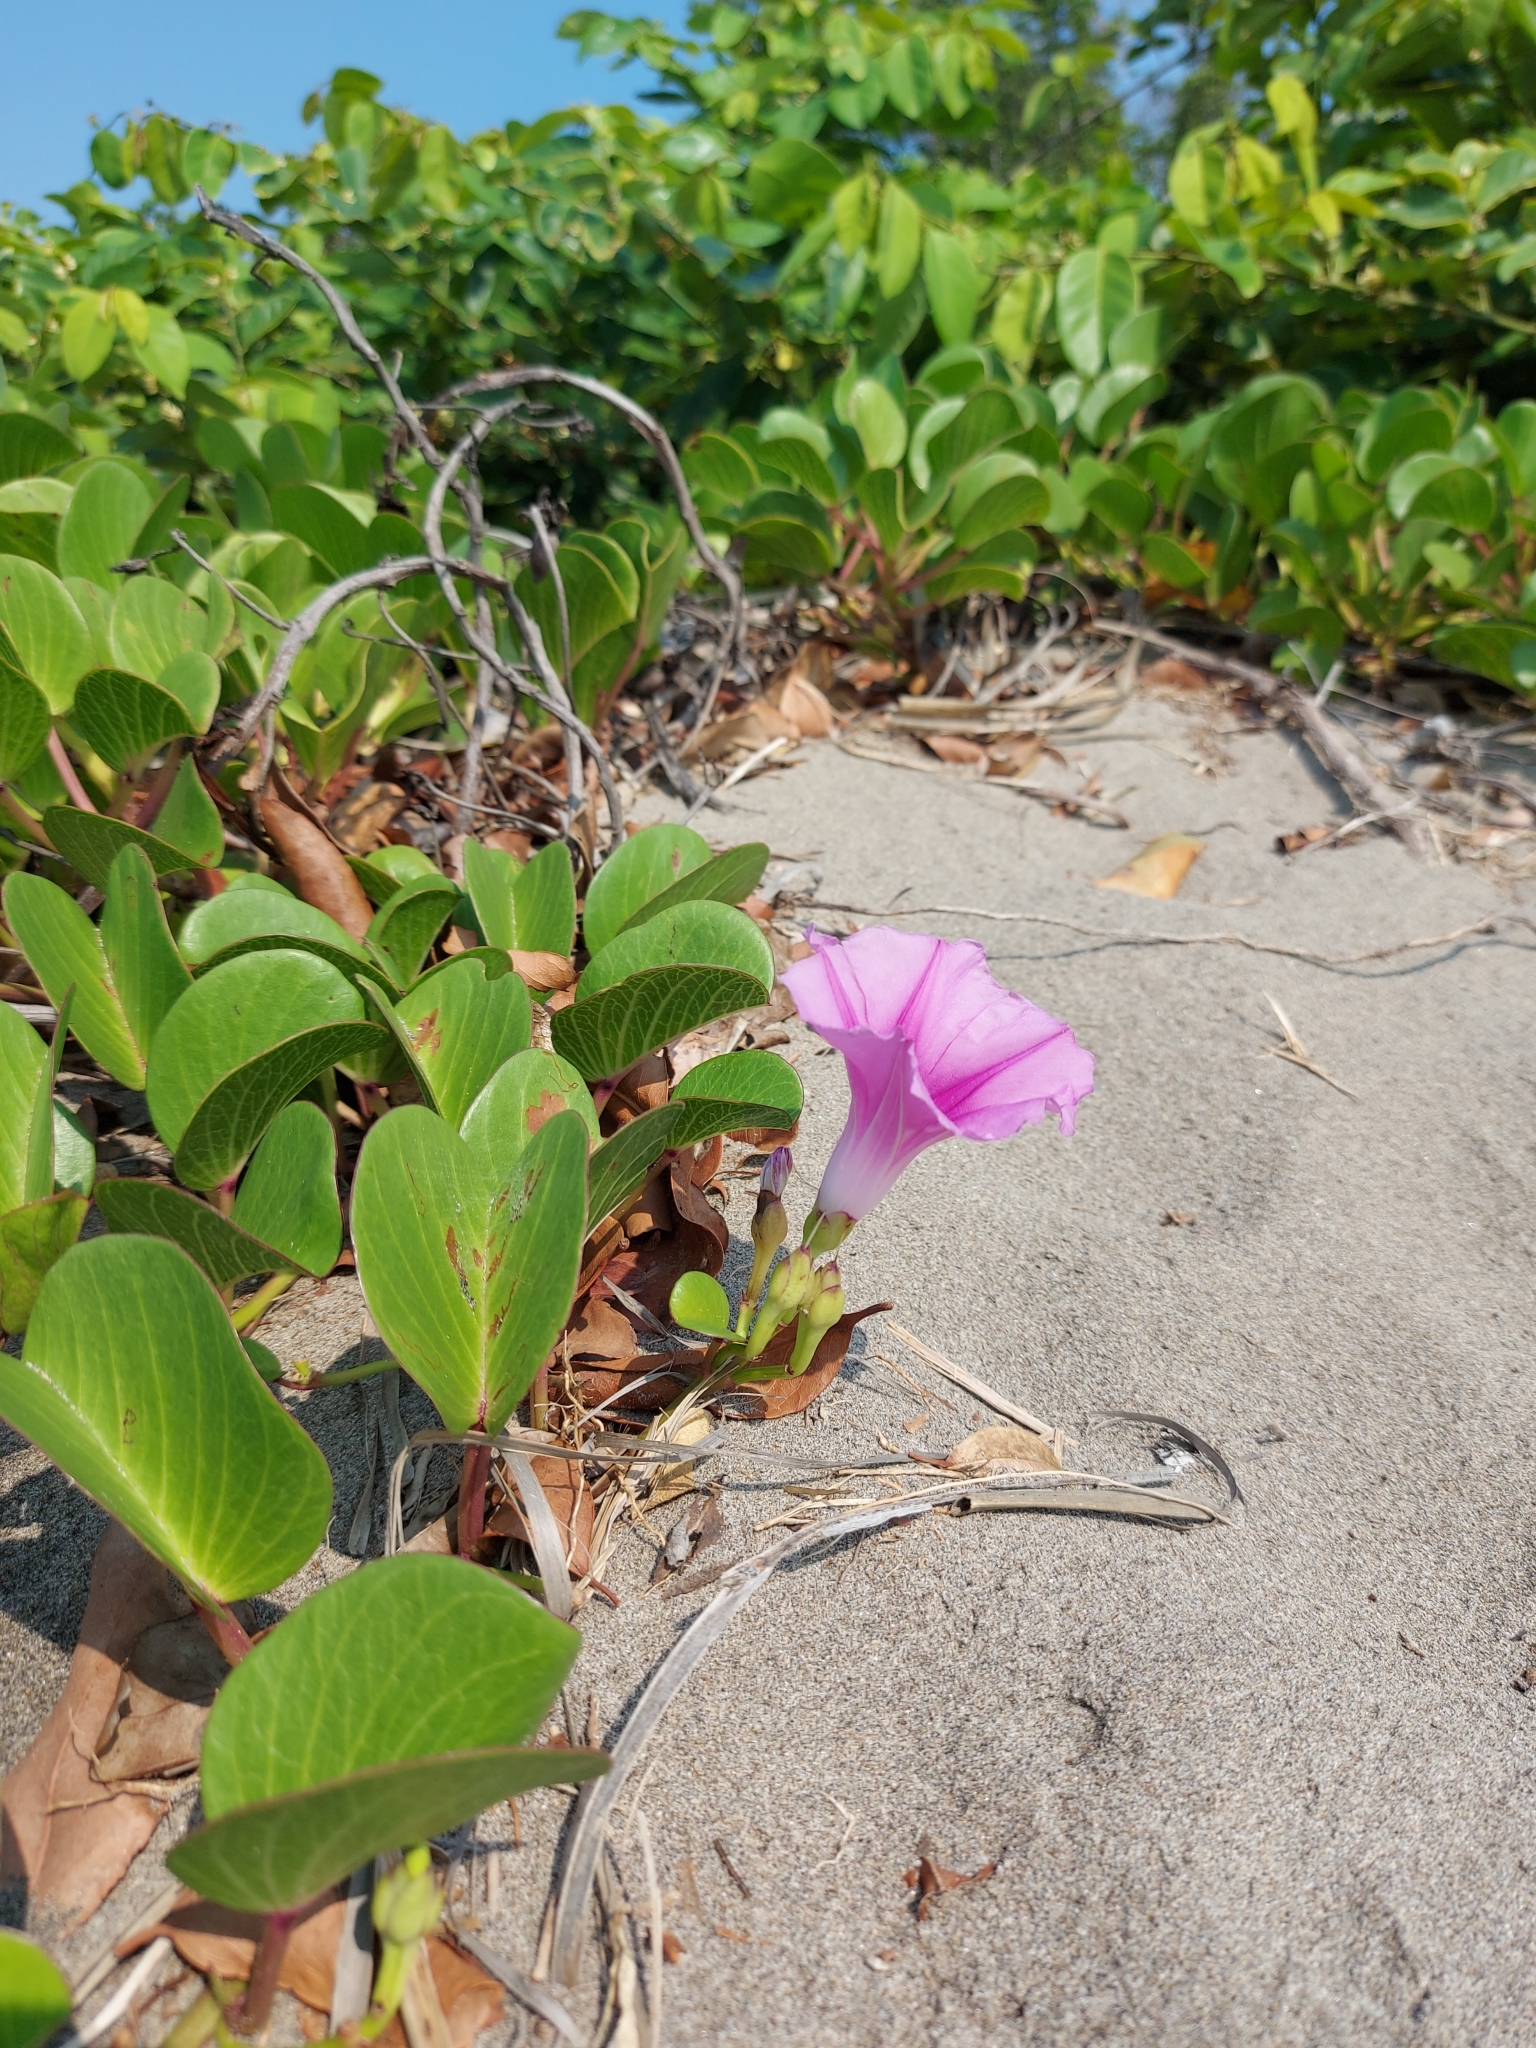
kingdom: Plantae
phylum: Tracheophyta
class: Magnoliopsida
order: Solanales
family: Convolvulaceae
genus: Ipomoea
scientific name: Ipomoea pes-caprae
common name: Beach morning glory
